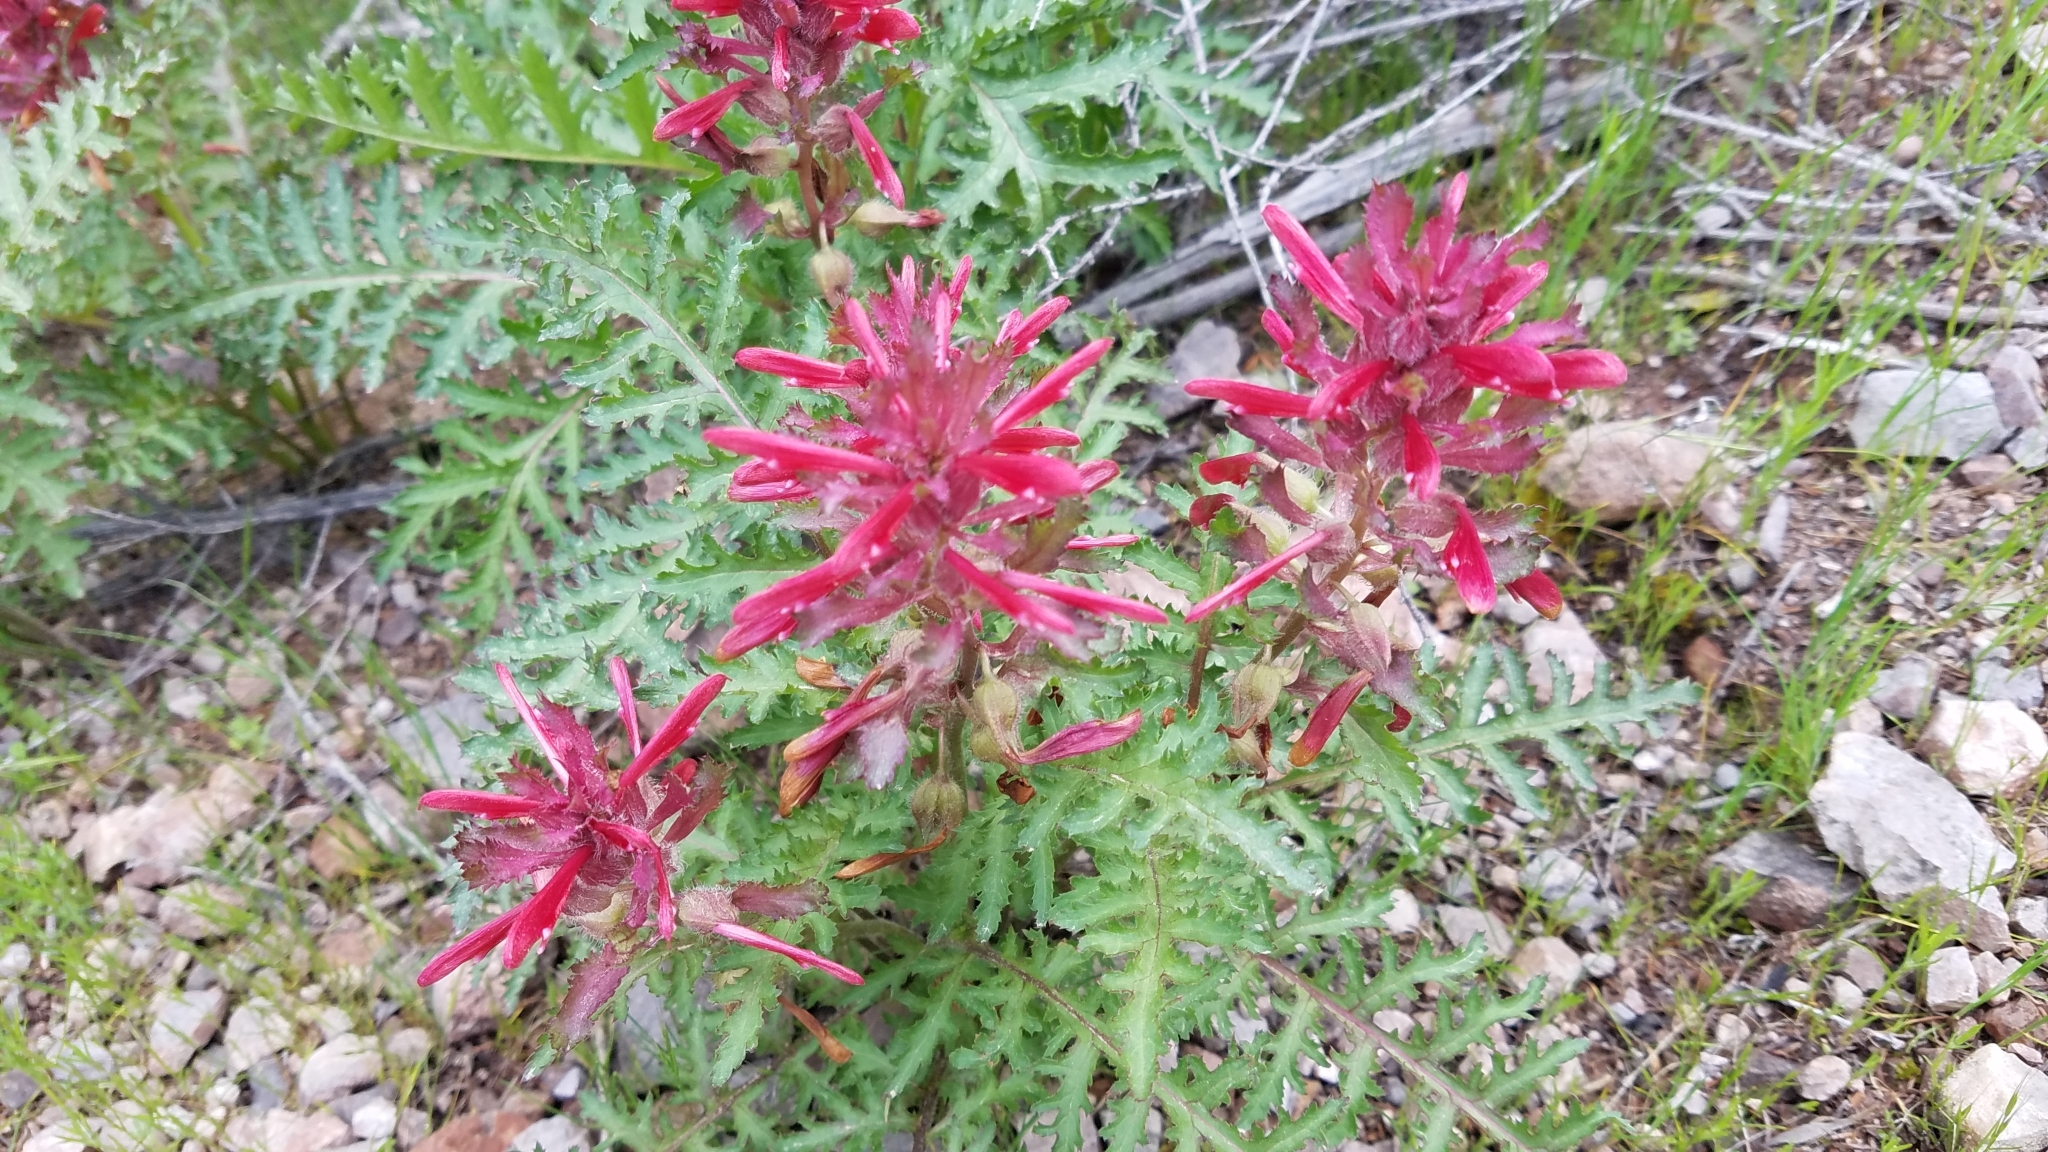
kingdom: Plantae
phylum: Tracheophyta
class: Magnoliopsida
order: Lamiales
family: Orobanchaceae
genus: Pedicularis
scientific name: Pedicularis densiflora
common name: Indian warrior
